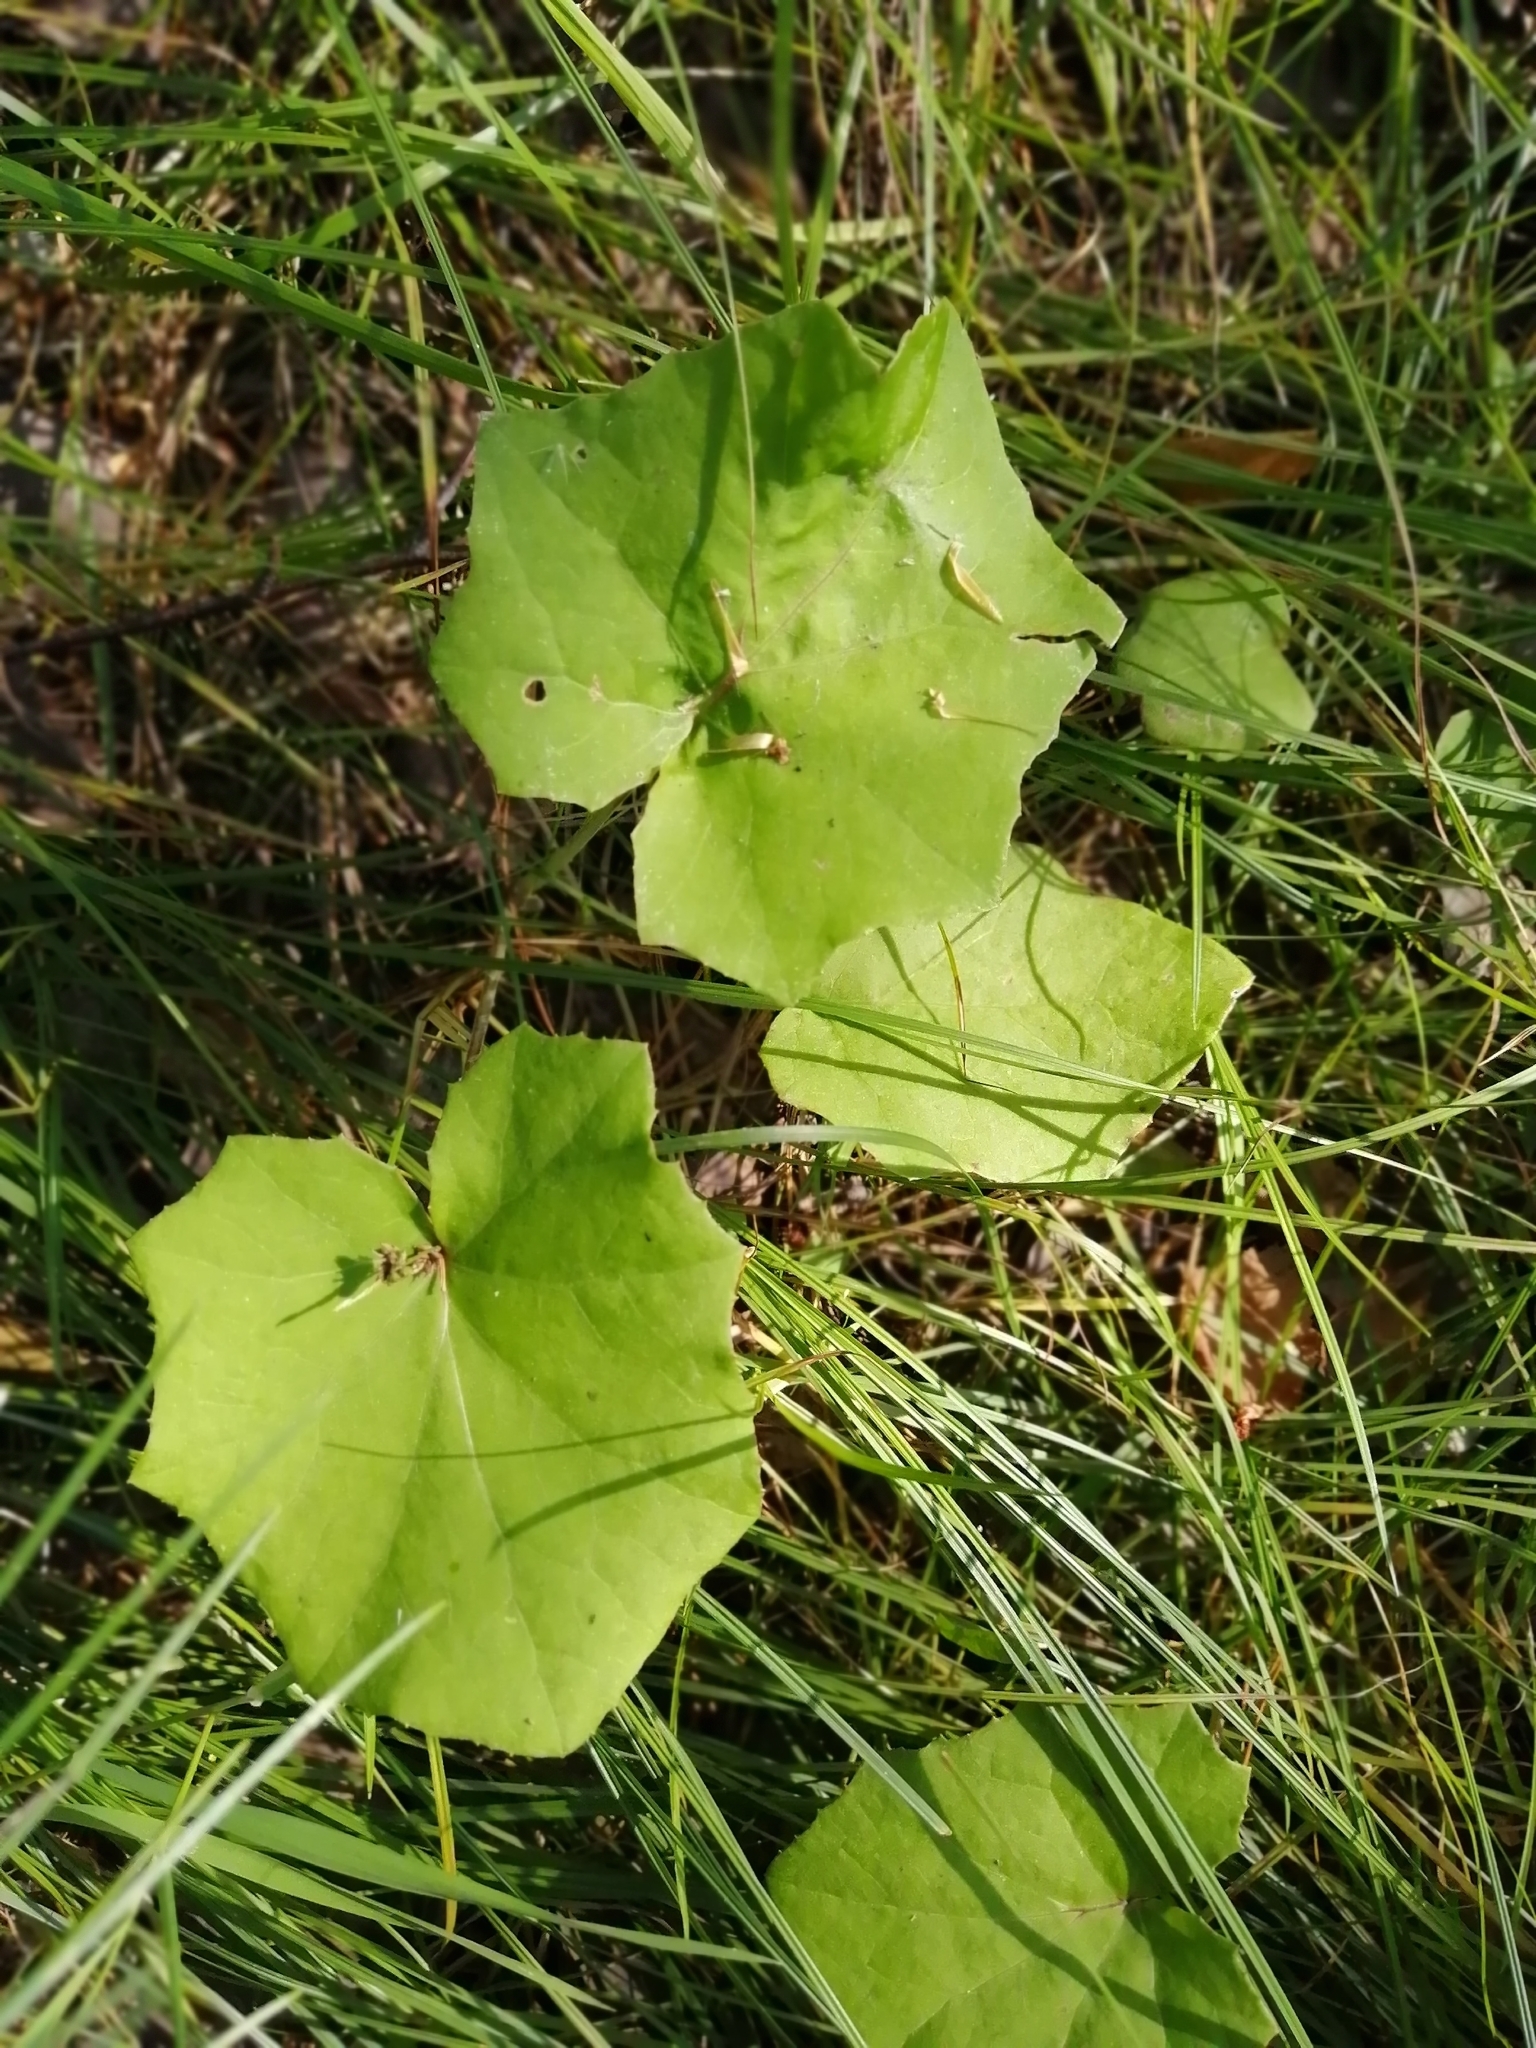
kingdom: Plantae
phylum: Tracheophyta
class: Magnoliopsida
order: Asterales
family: Asteraceae
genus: Tussilago
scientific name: Tussilago farfara
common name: Coltsfoot
